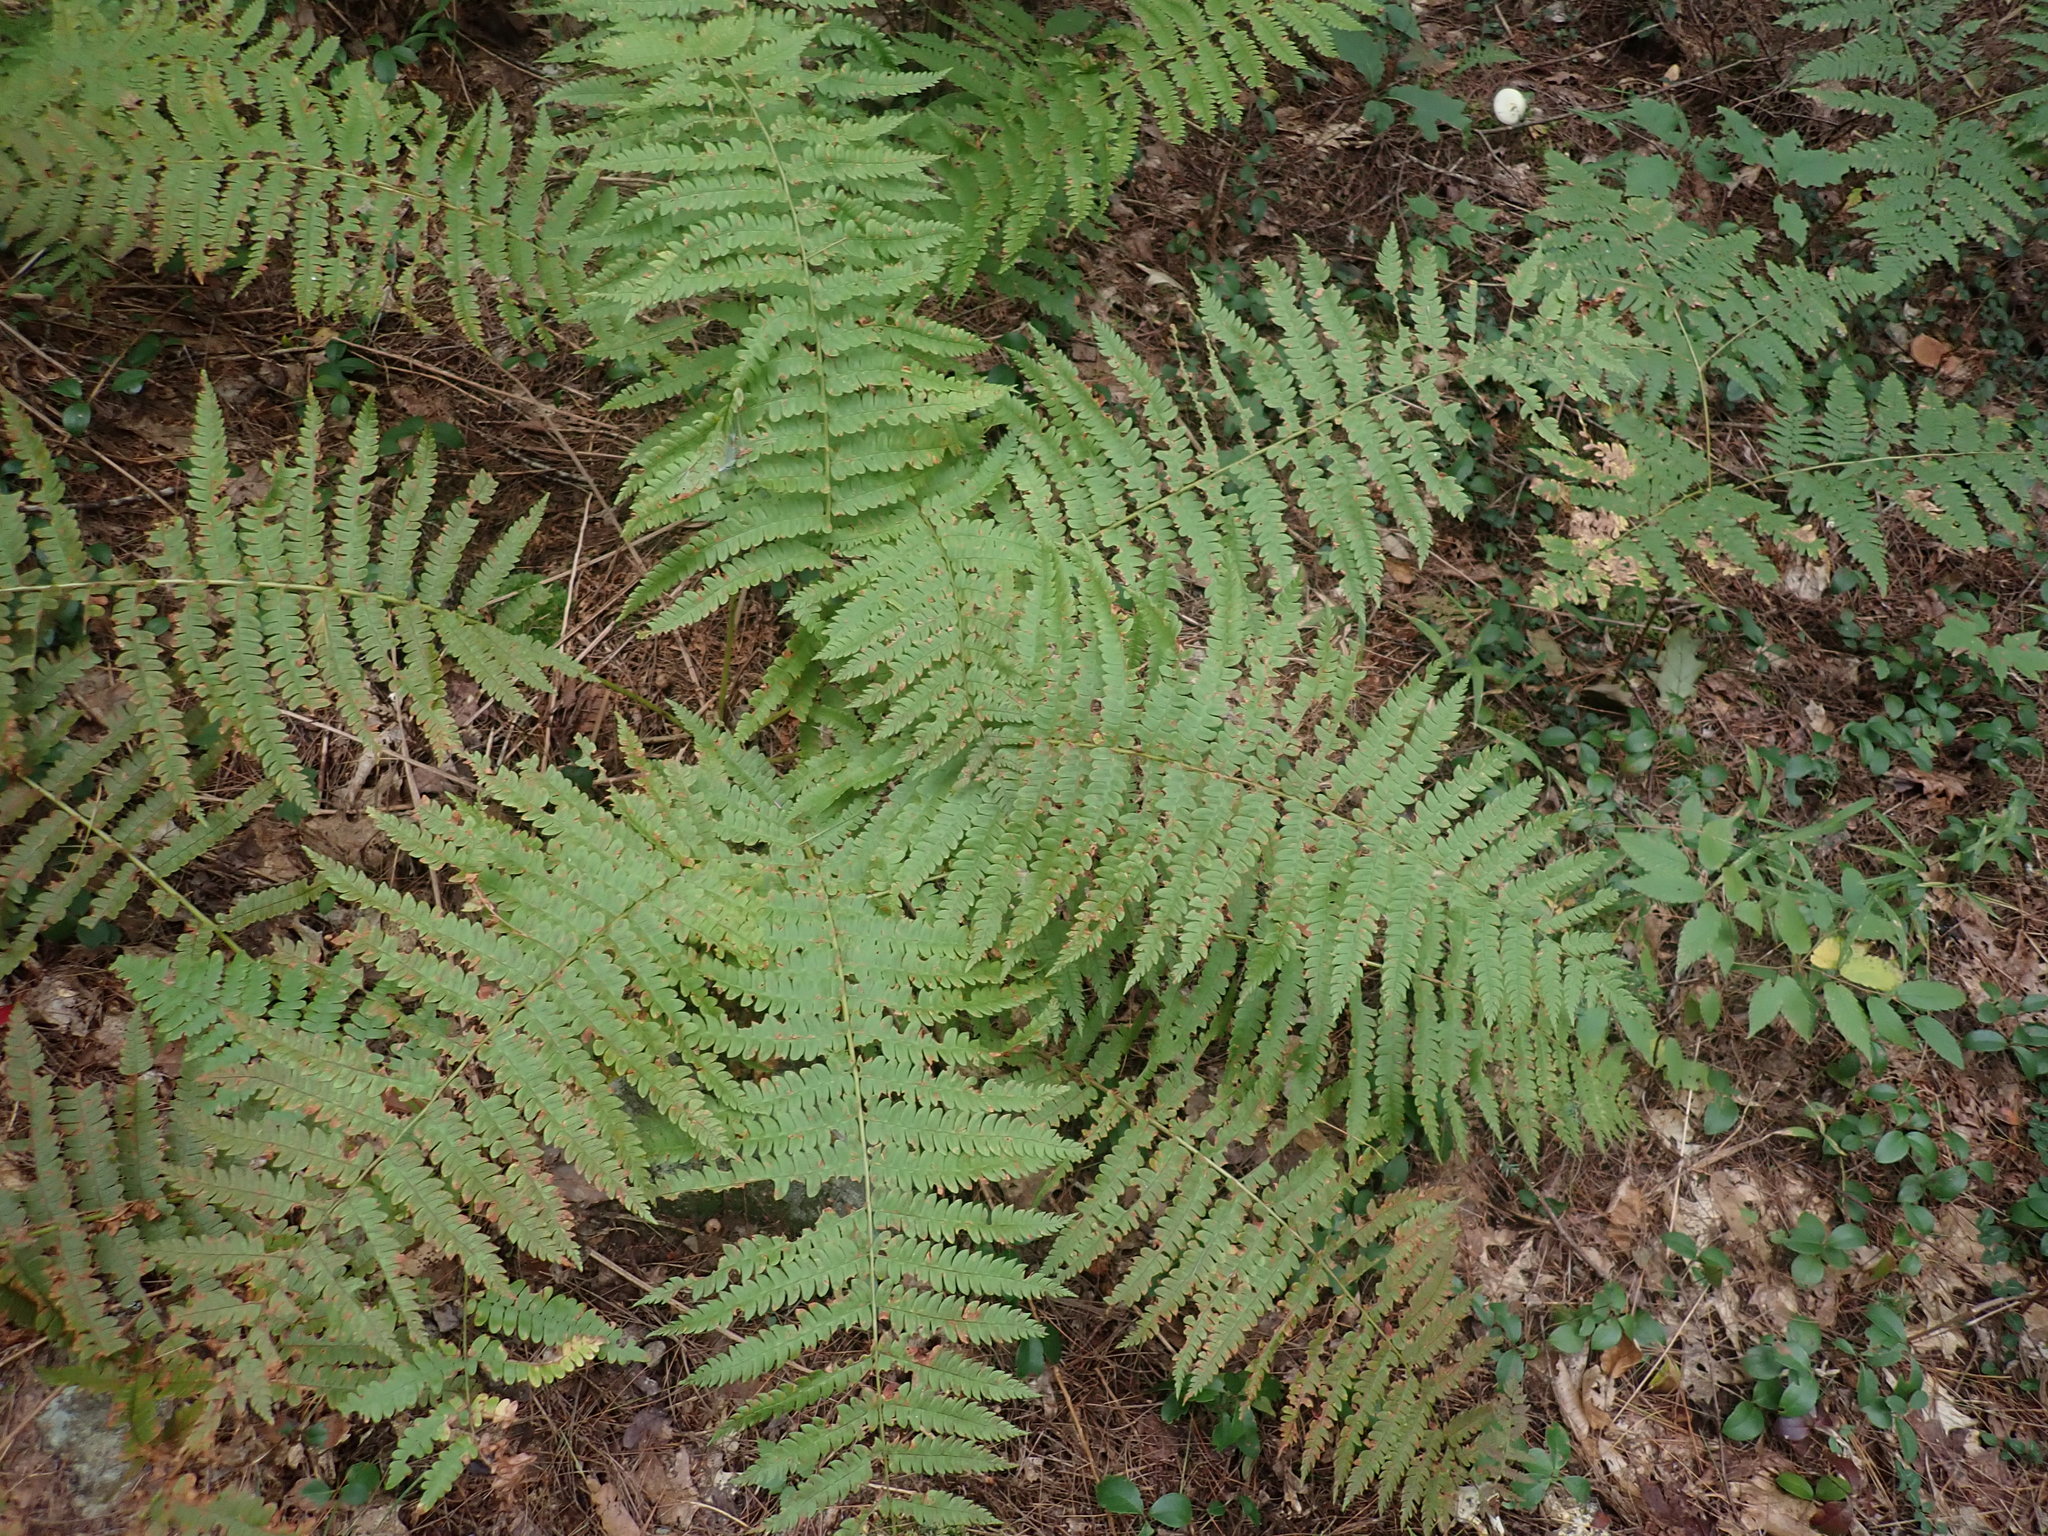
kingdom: Plantae
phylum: Tracheophyta
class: Polypodiopsida
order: Osmundales
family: Osmundaceae
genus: Osmundastrum
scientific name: Osmundastrum cinnamomeum
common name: Cinnamon fern
